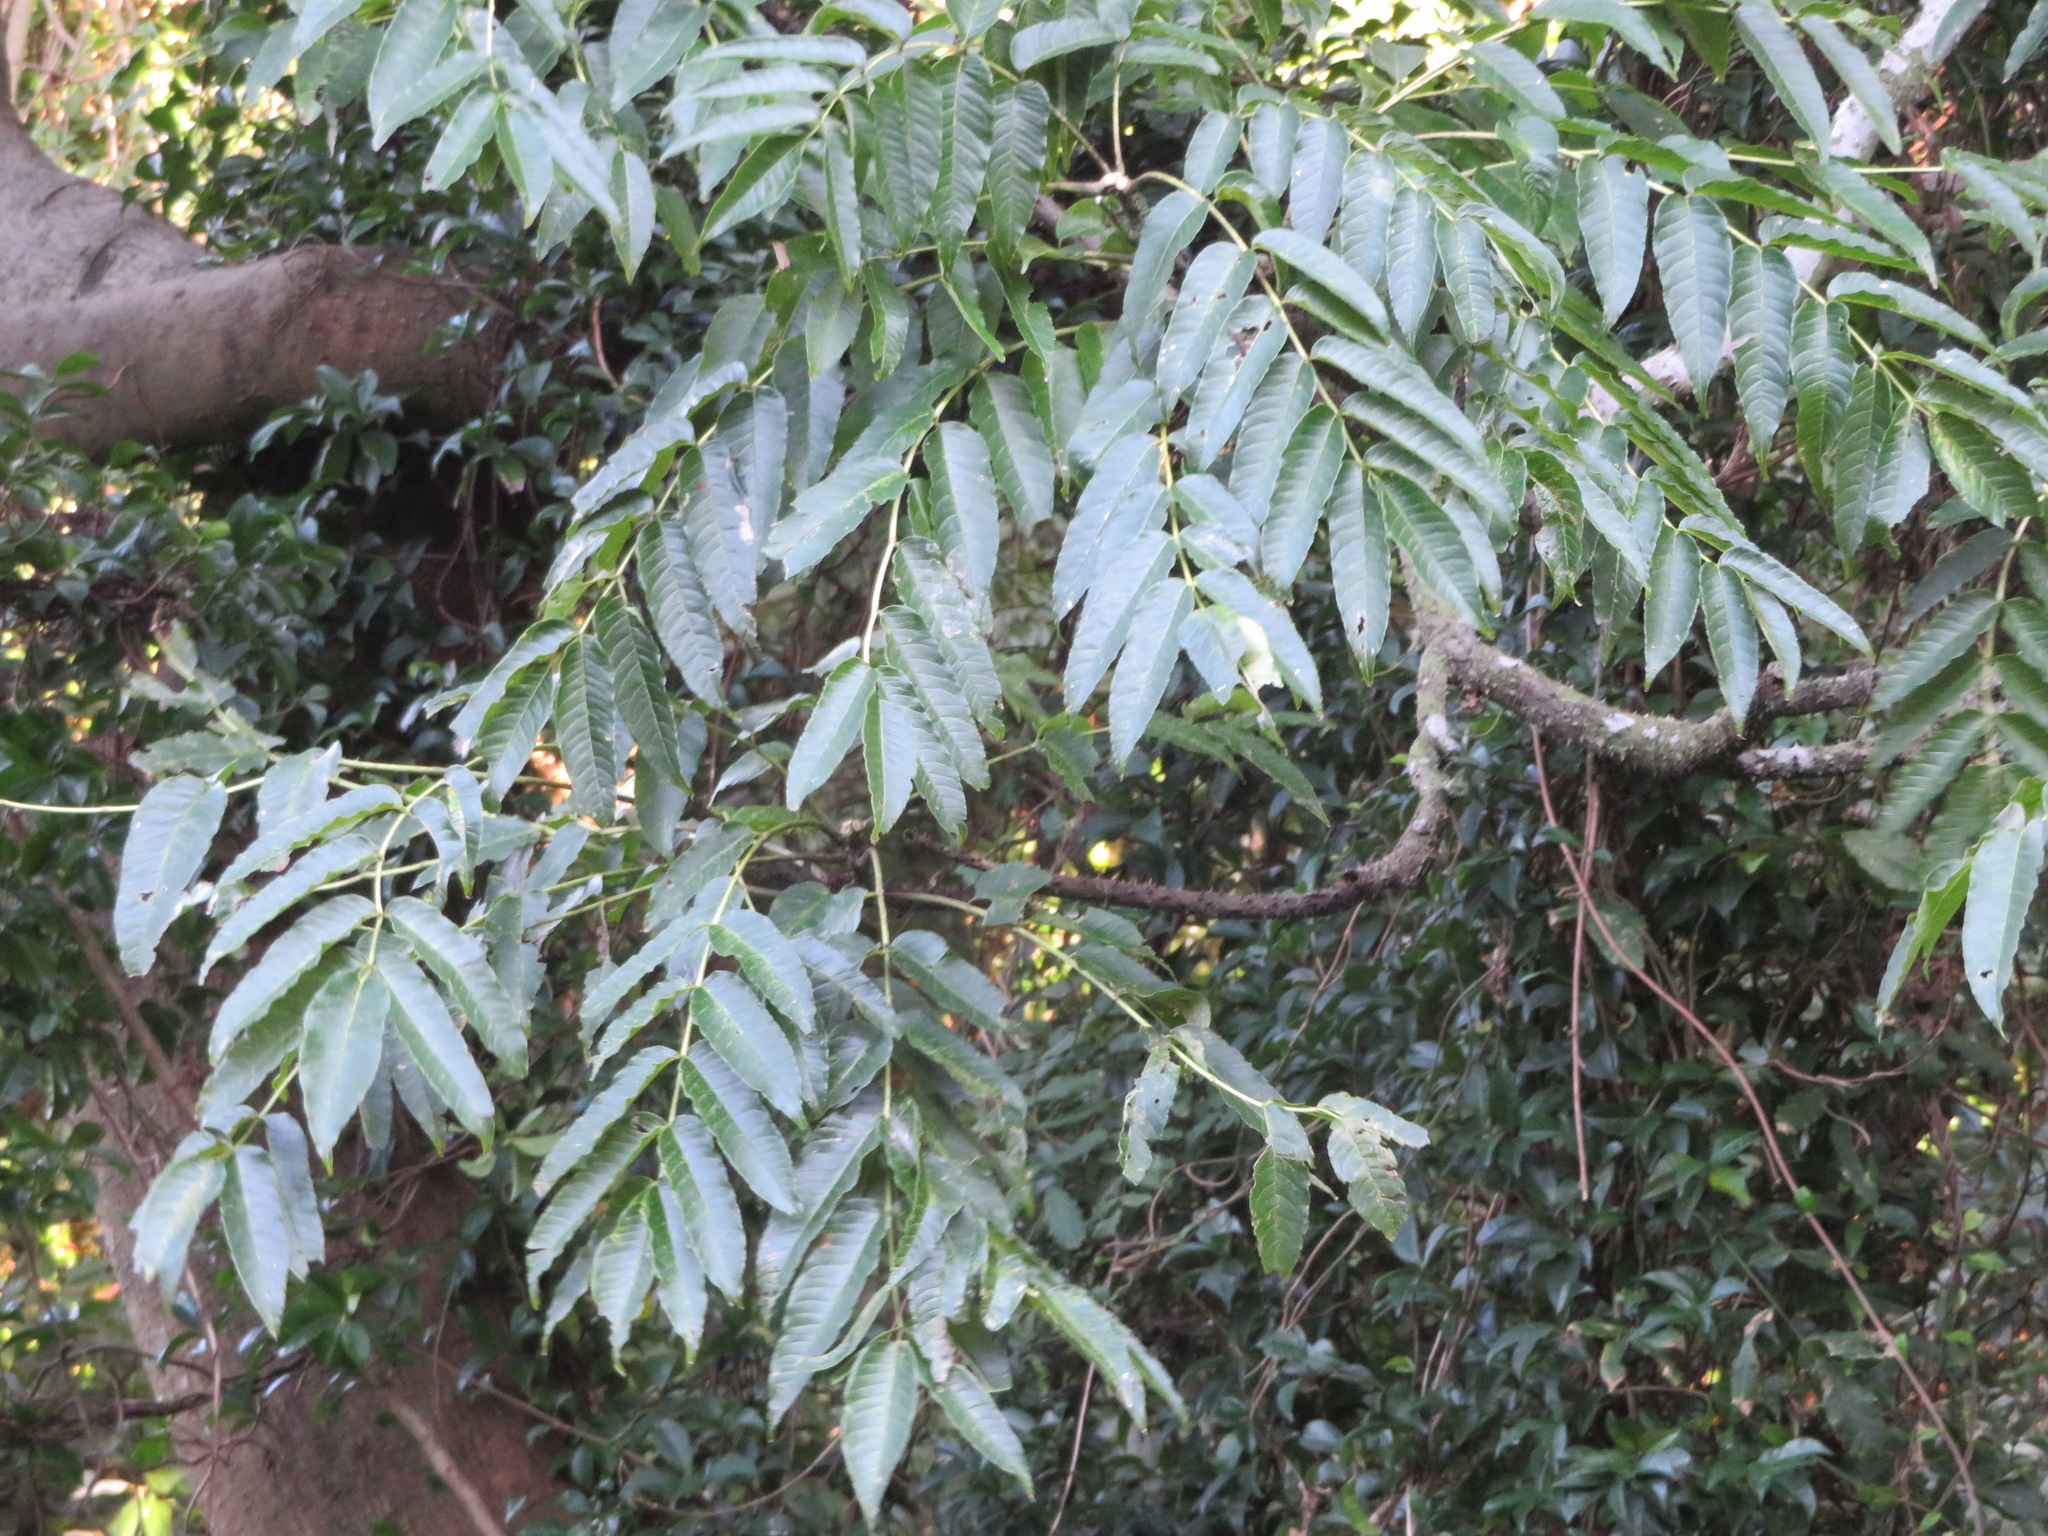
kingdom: Plantae
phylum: Tracheophyta
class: Magnoliopsida
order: Sapindales
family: Sapindaceae
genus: Sapindus
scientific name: Sapindus mukorossi
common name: Chinese soapberry
